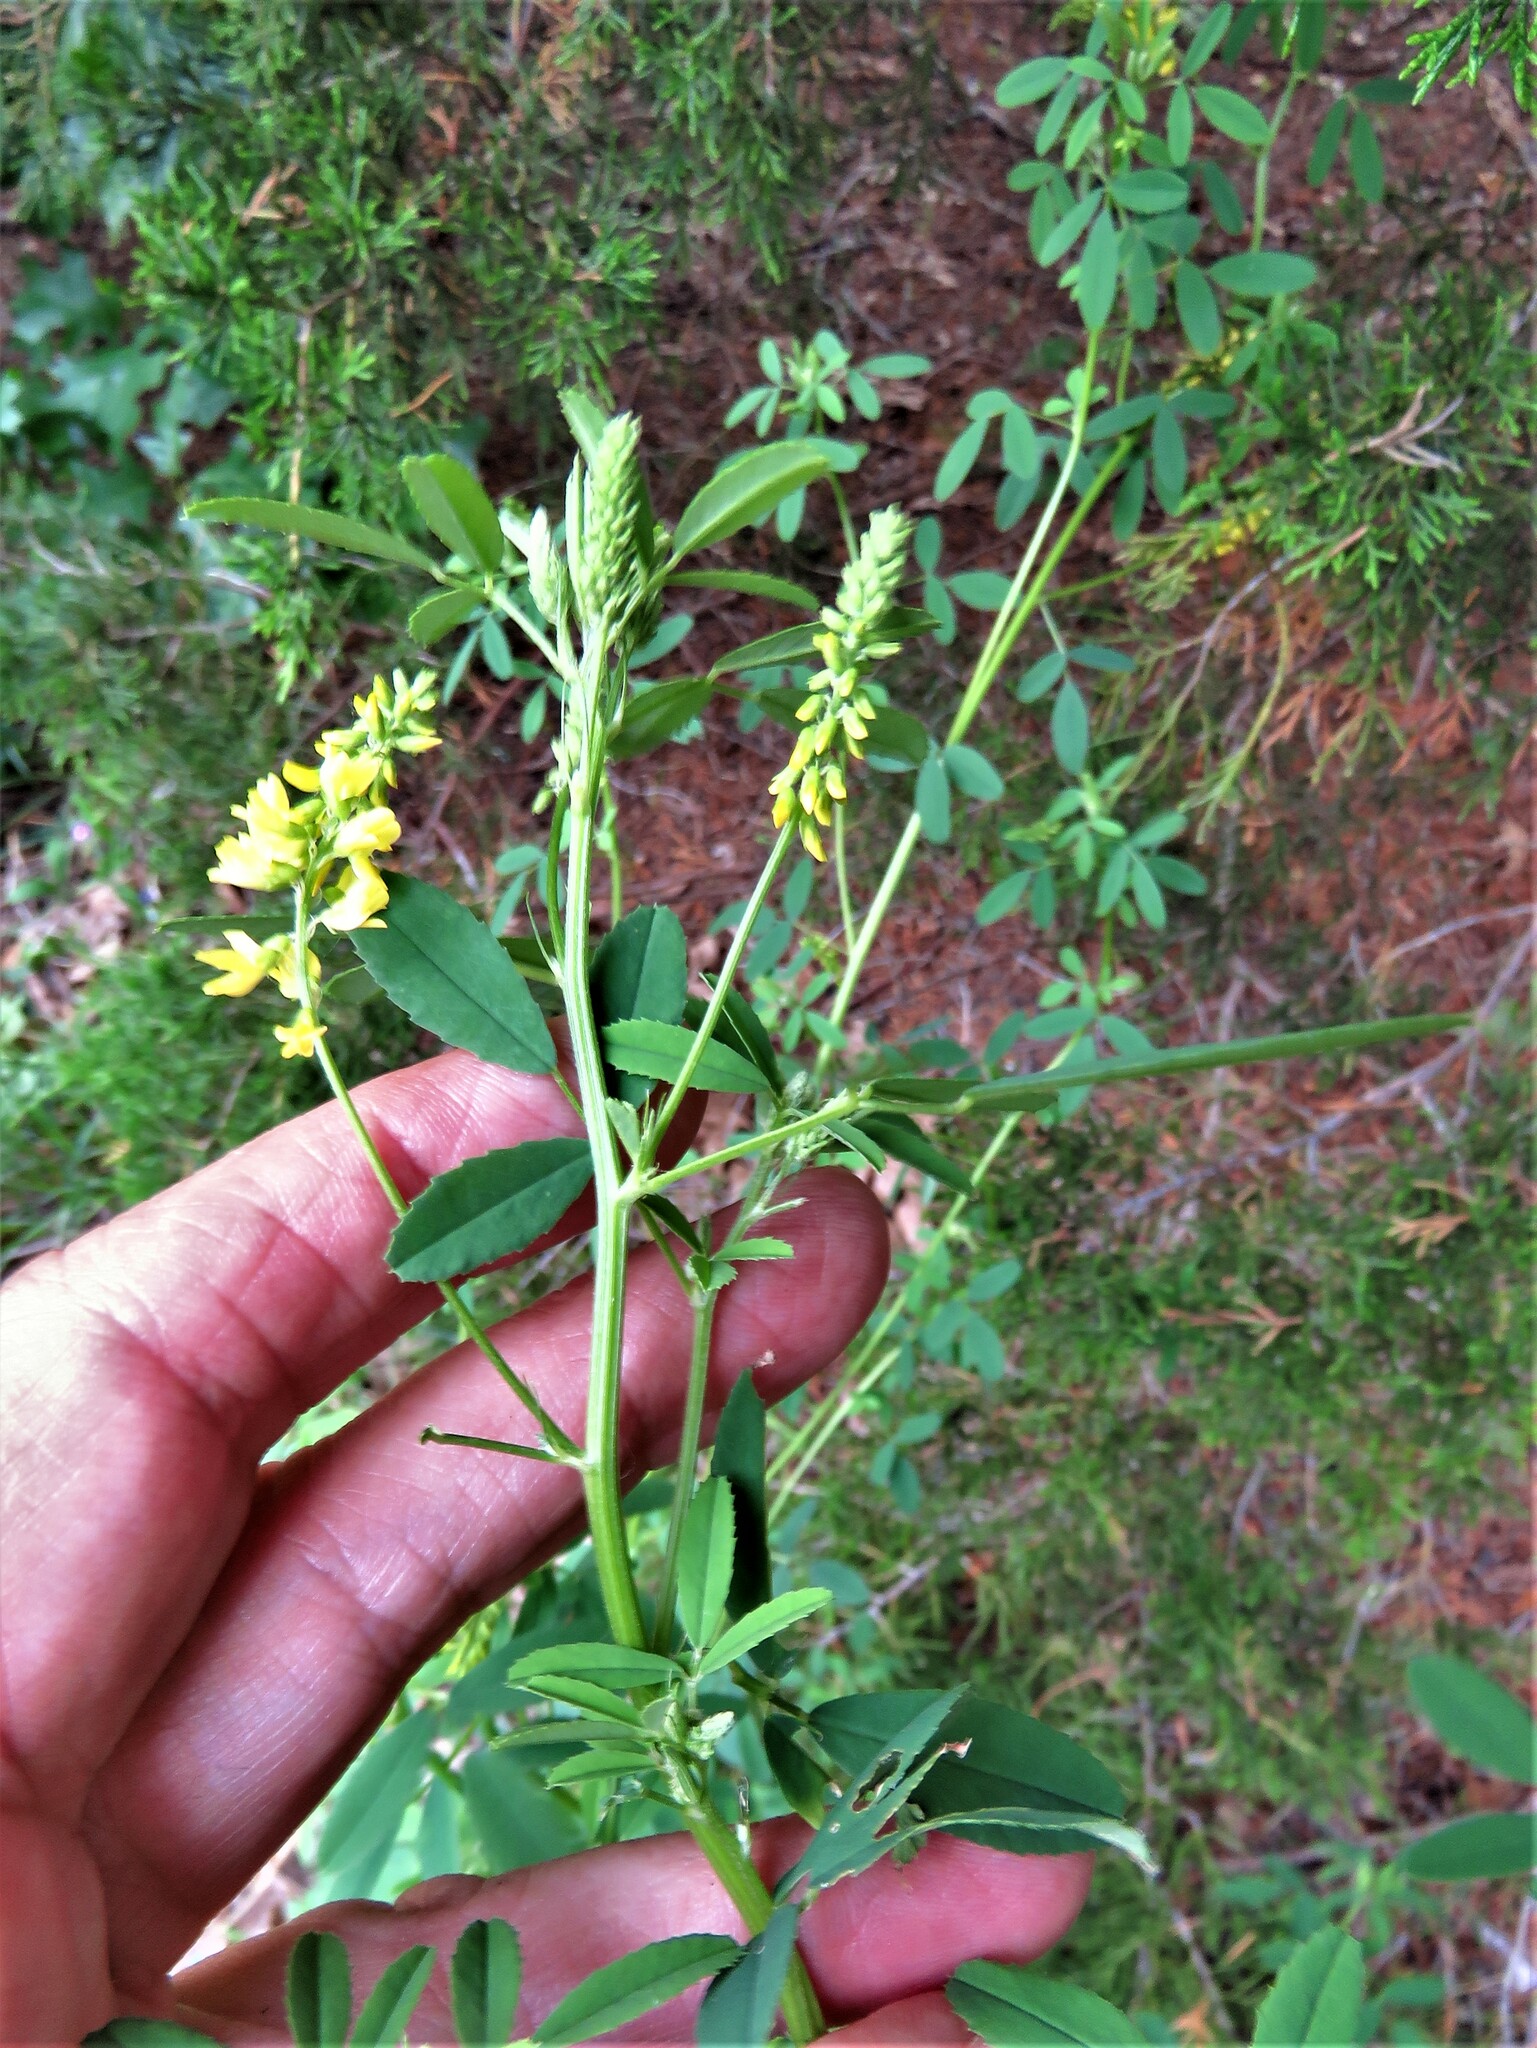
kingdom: Plantae
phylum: Tracheophyta
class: Magnoliopsida
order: Fabales
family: Fabaceae
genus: Melilotus
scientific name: Melilotus officinalis
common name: Sweetclover
